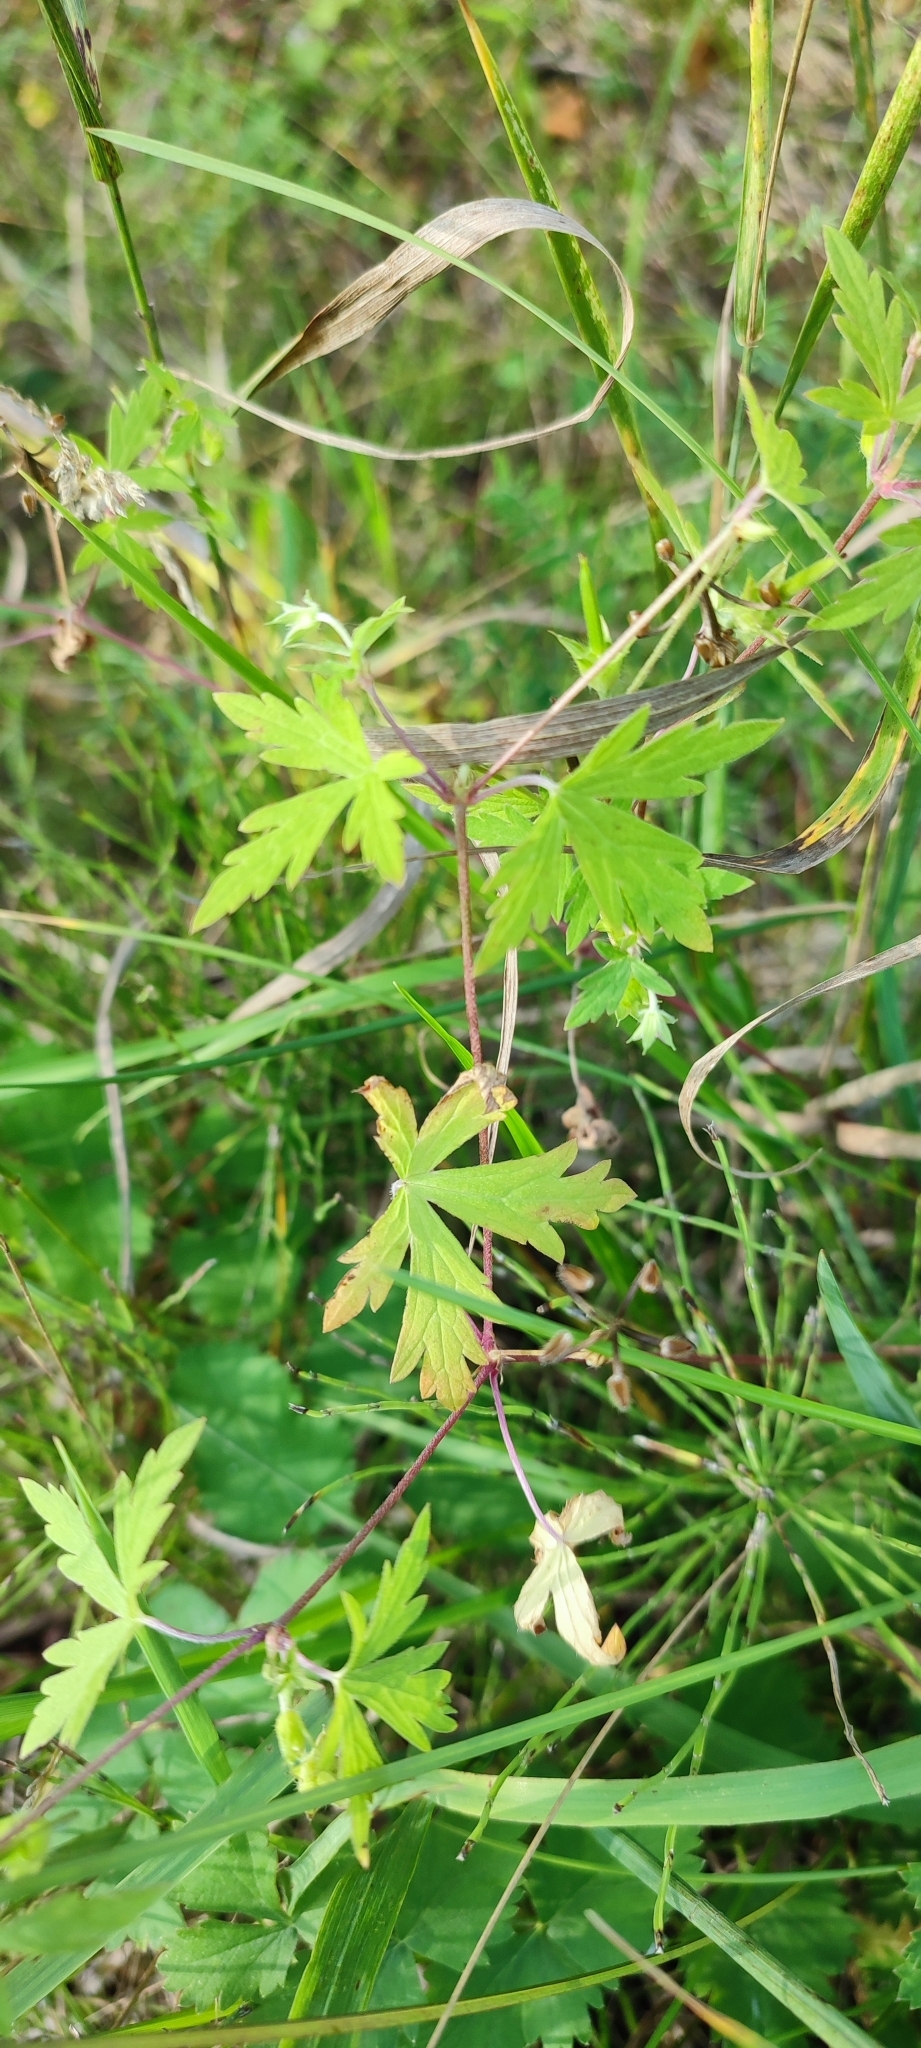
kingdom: Plantae
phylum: Tracheophyta
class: Magnoliopsida
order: Geraniales
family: Geraniaceae
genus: Geranium
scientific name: Geranium sibiricum
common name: Siberian crane's-bill
